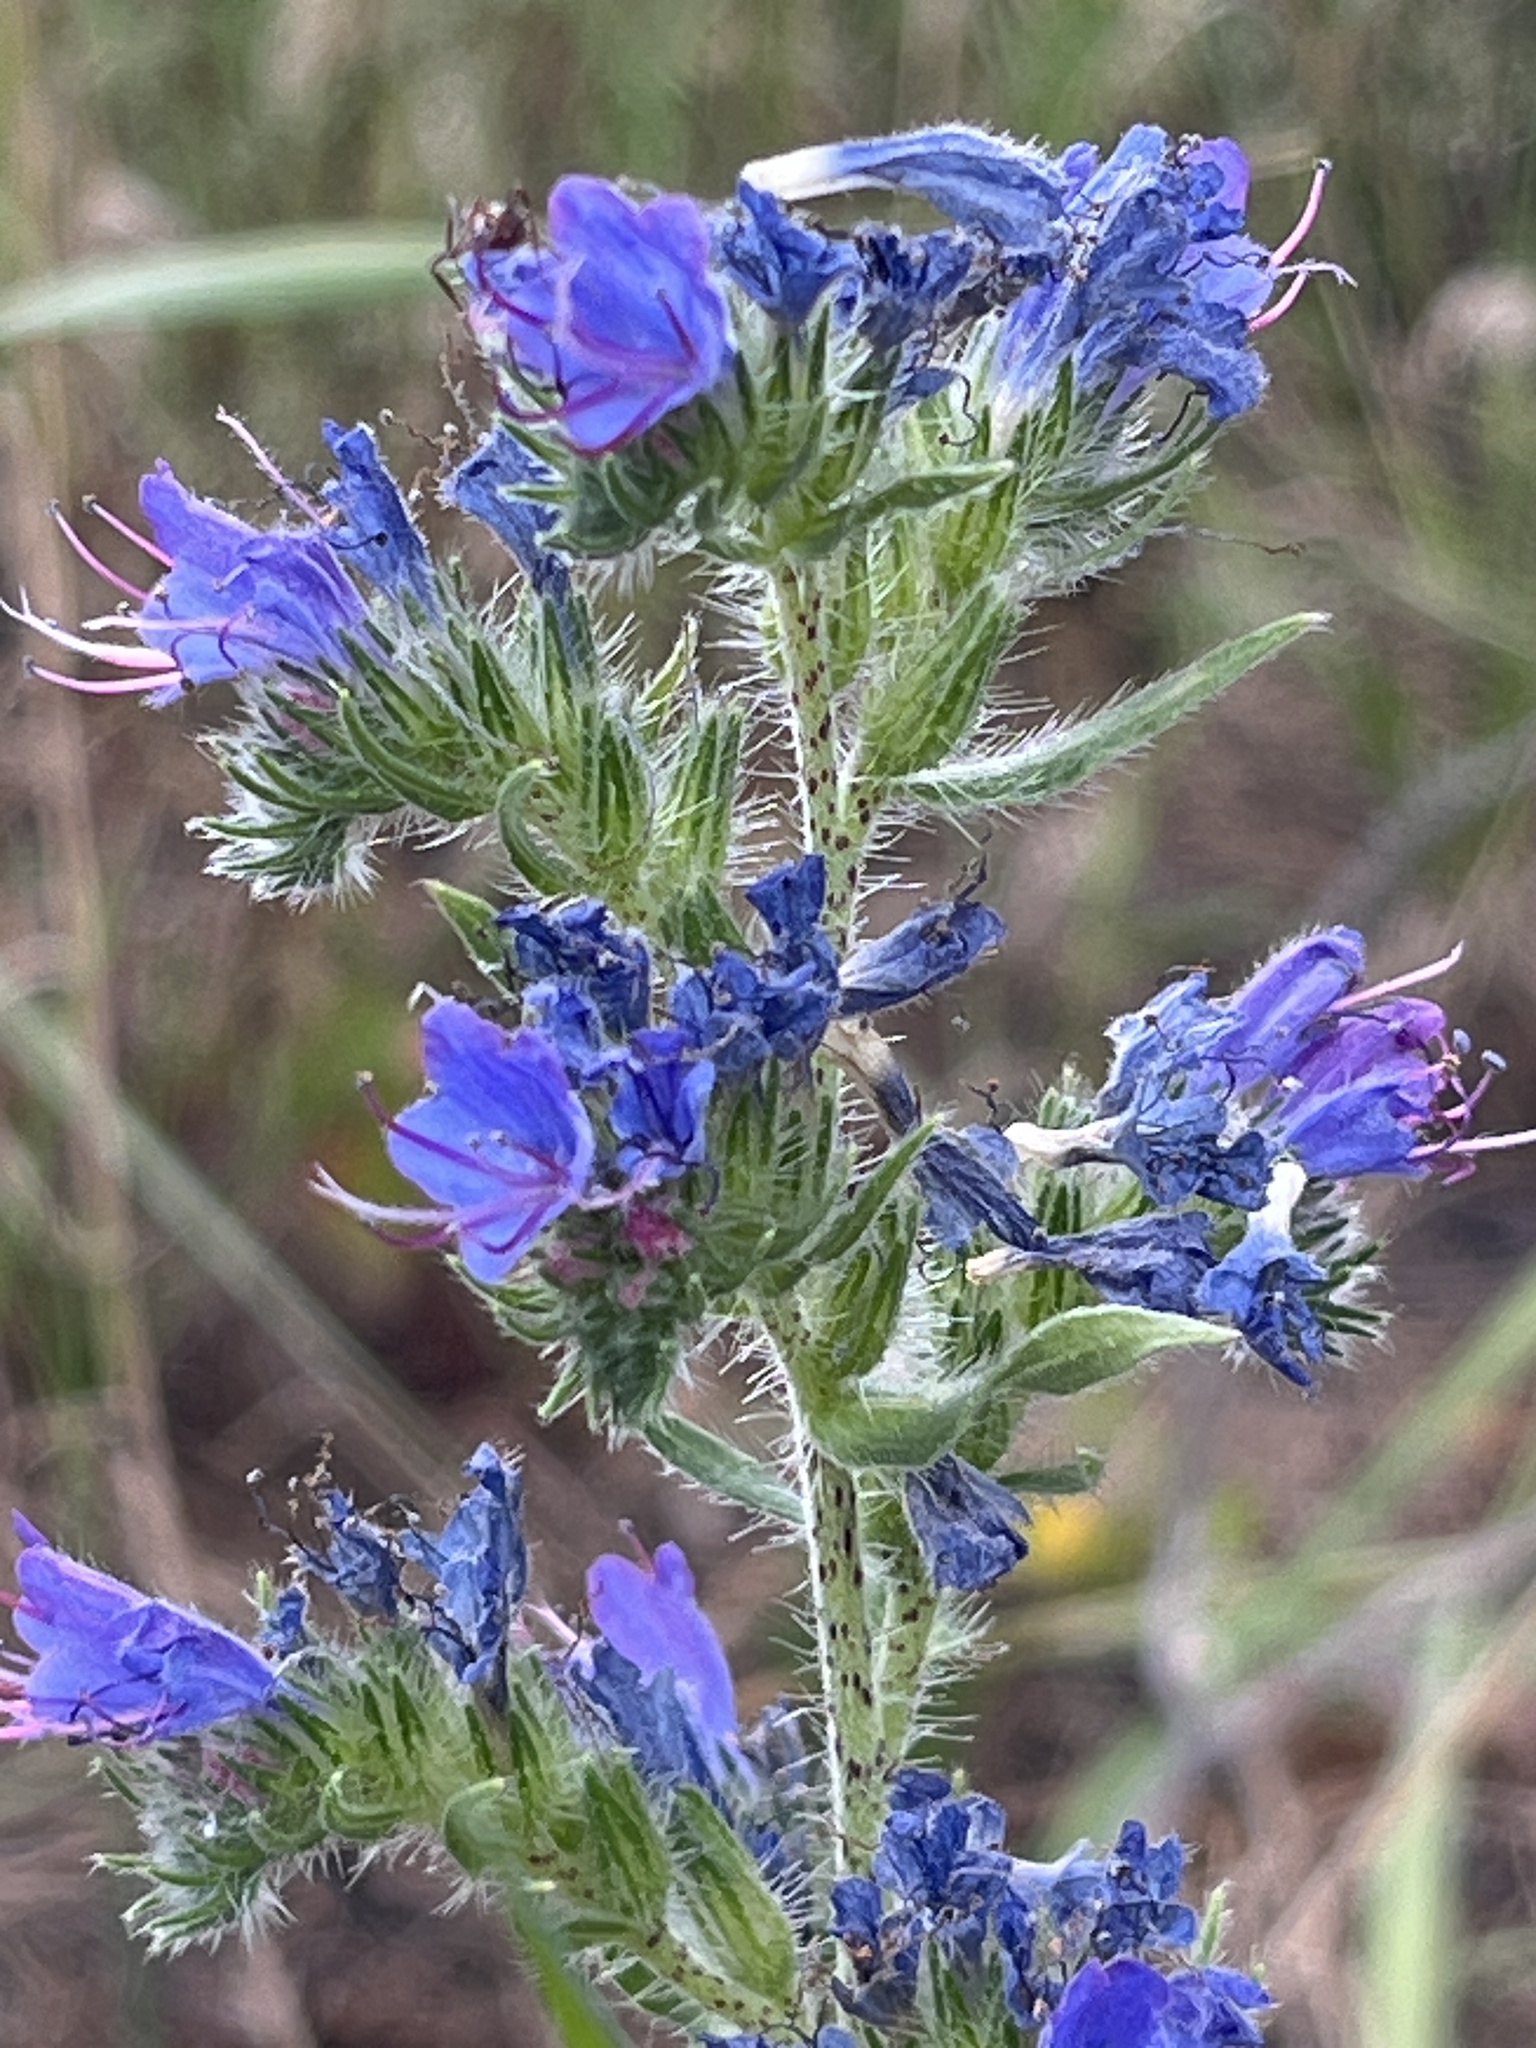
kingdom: Plantae
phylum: Tracheophyta
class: Magnoliopsida
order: Boraginales
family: Boraginaceae
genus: Echium
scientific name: Echium vulgare
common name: Common viper's bugloss
